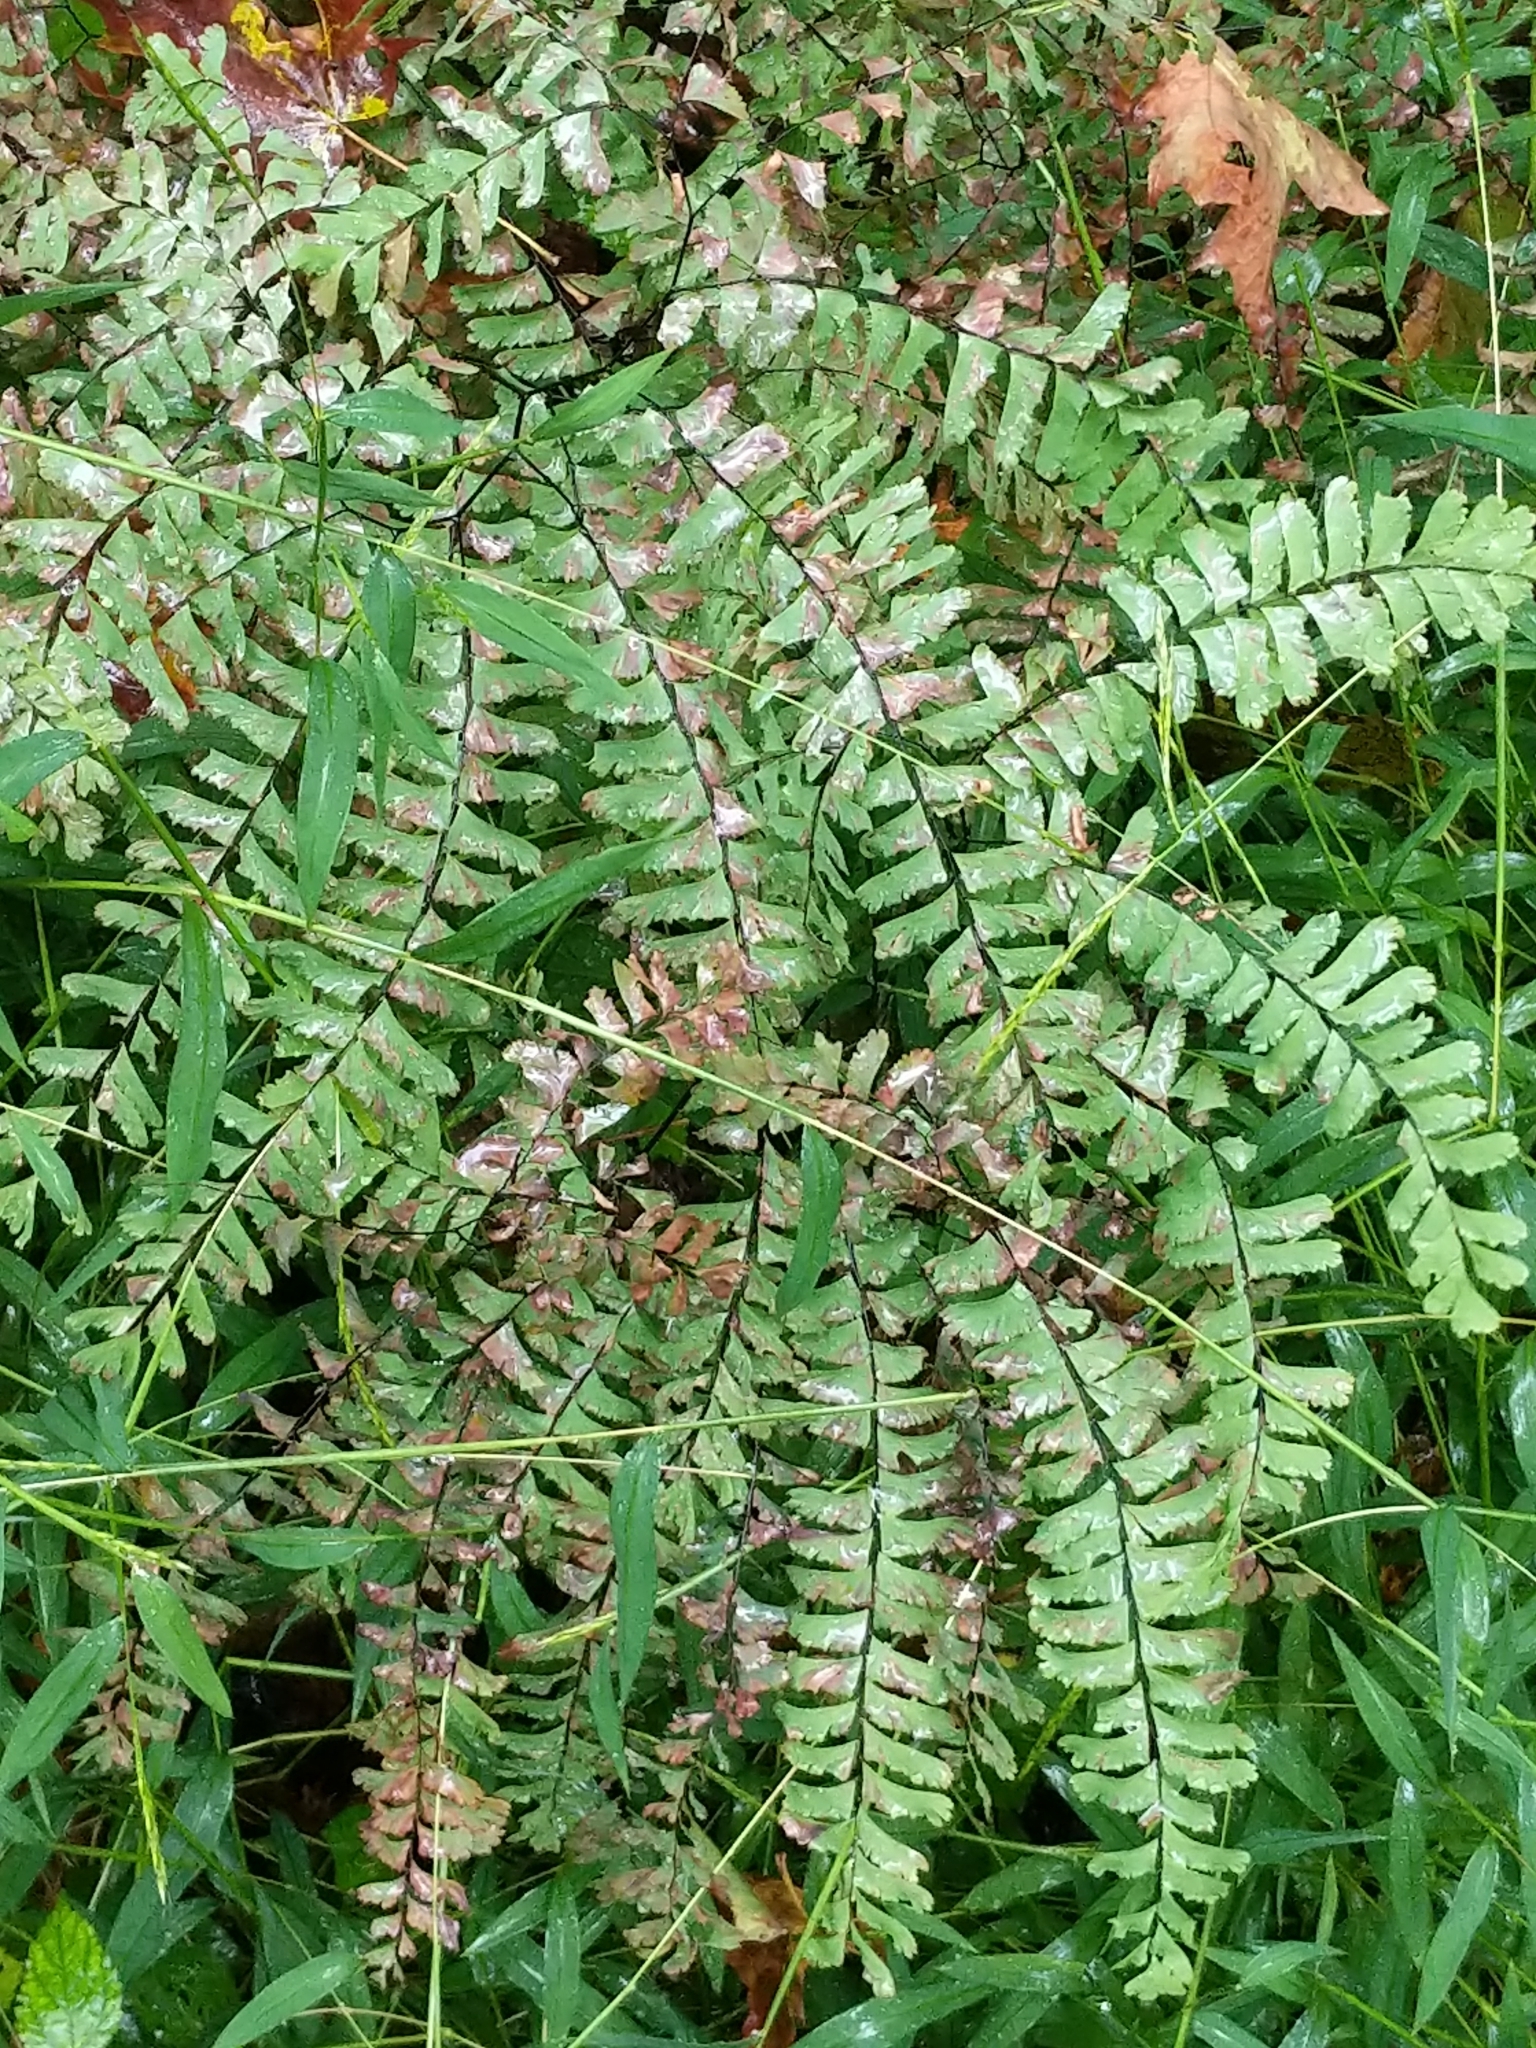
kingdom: Plantae
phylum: Tracheophyta
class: Polypodiopsida
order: Polypodiales
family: Pteridaceae
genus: Adiantum
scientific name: Adiantum pedatum
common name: Five-finger fern
